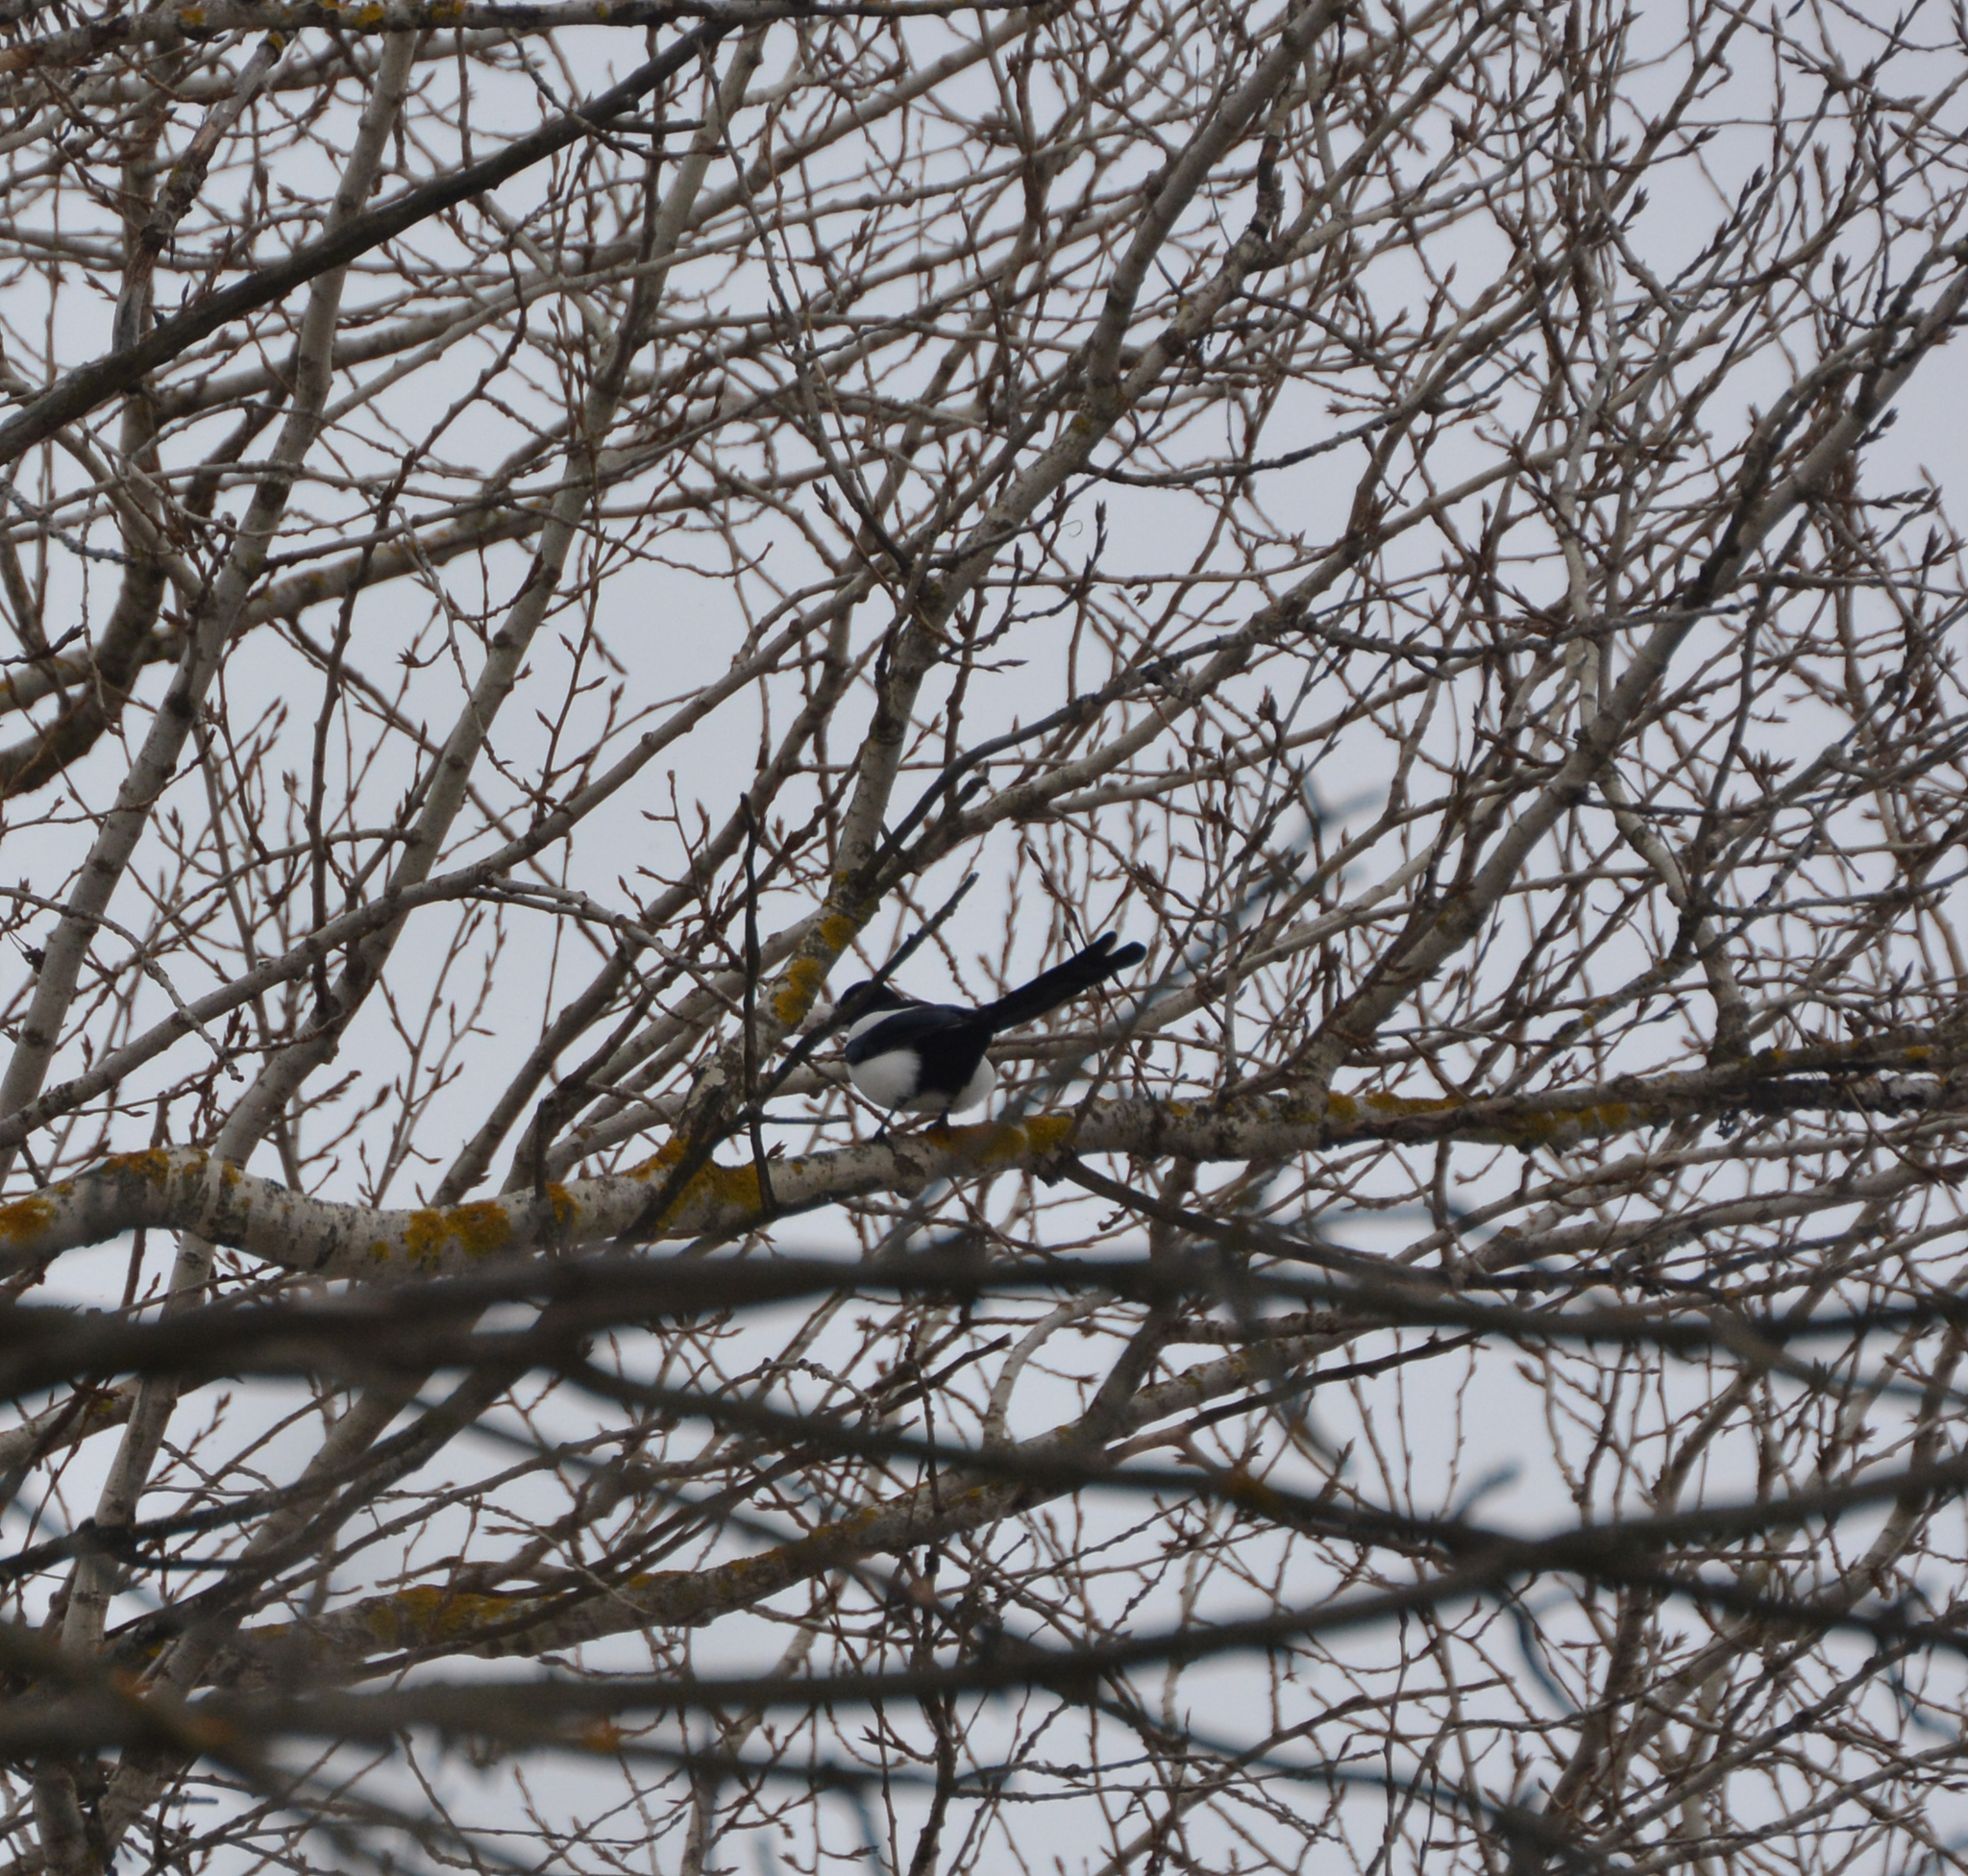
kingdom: Animalia
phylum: Chordata
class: Aves
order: Passeriformes
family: Corvidae
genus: Pica
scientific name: Pica pica
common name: Eurasian magpie
